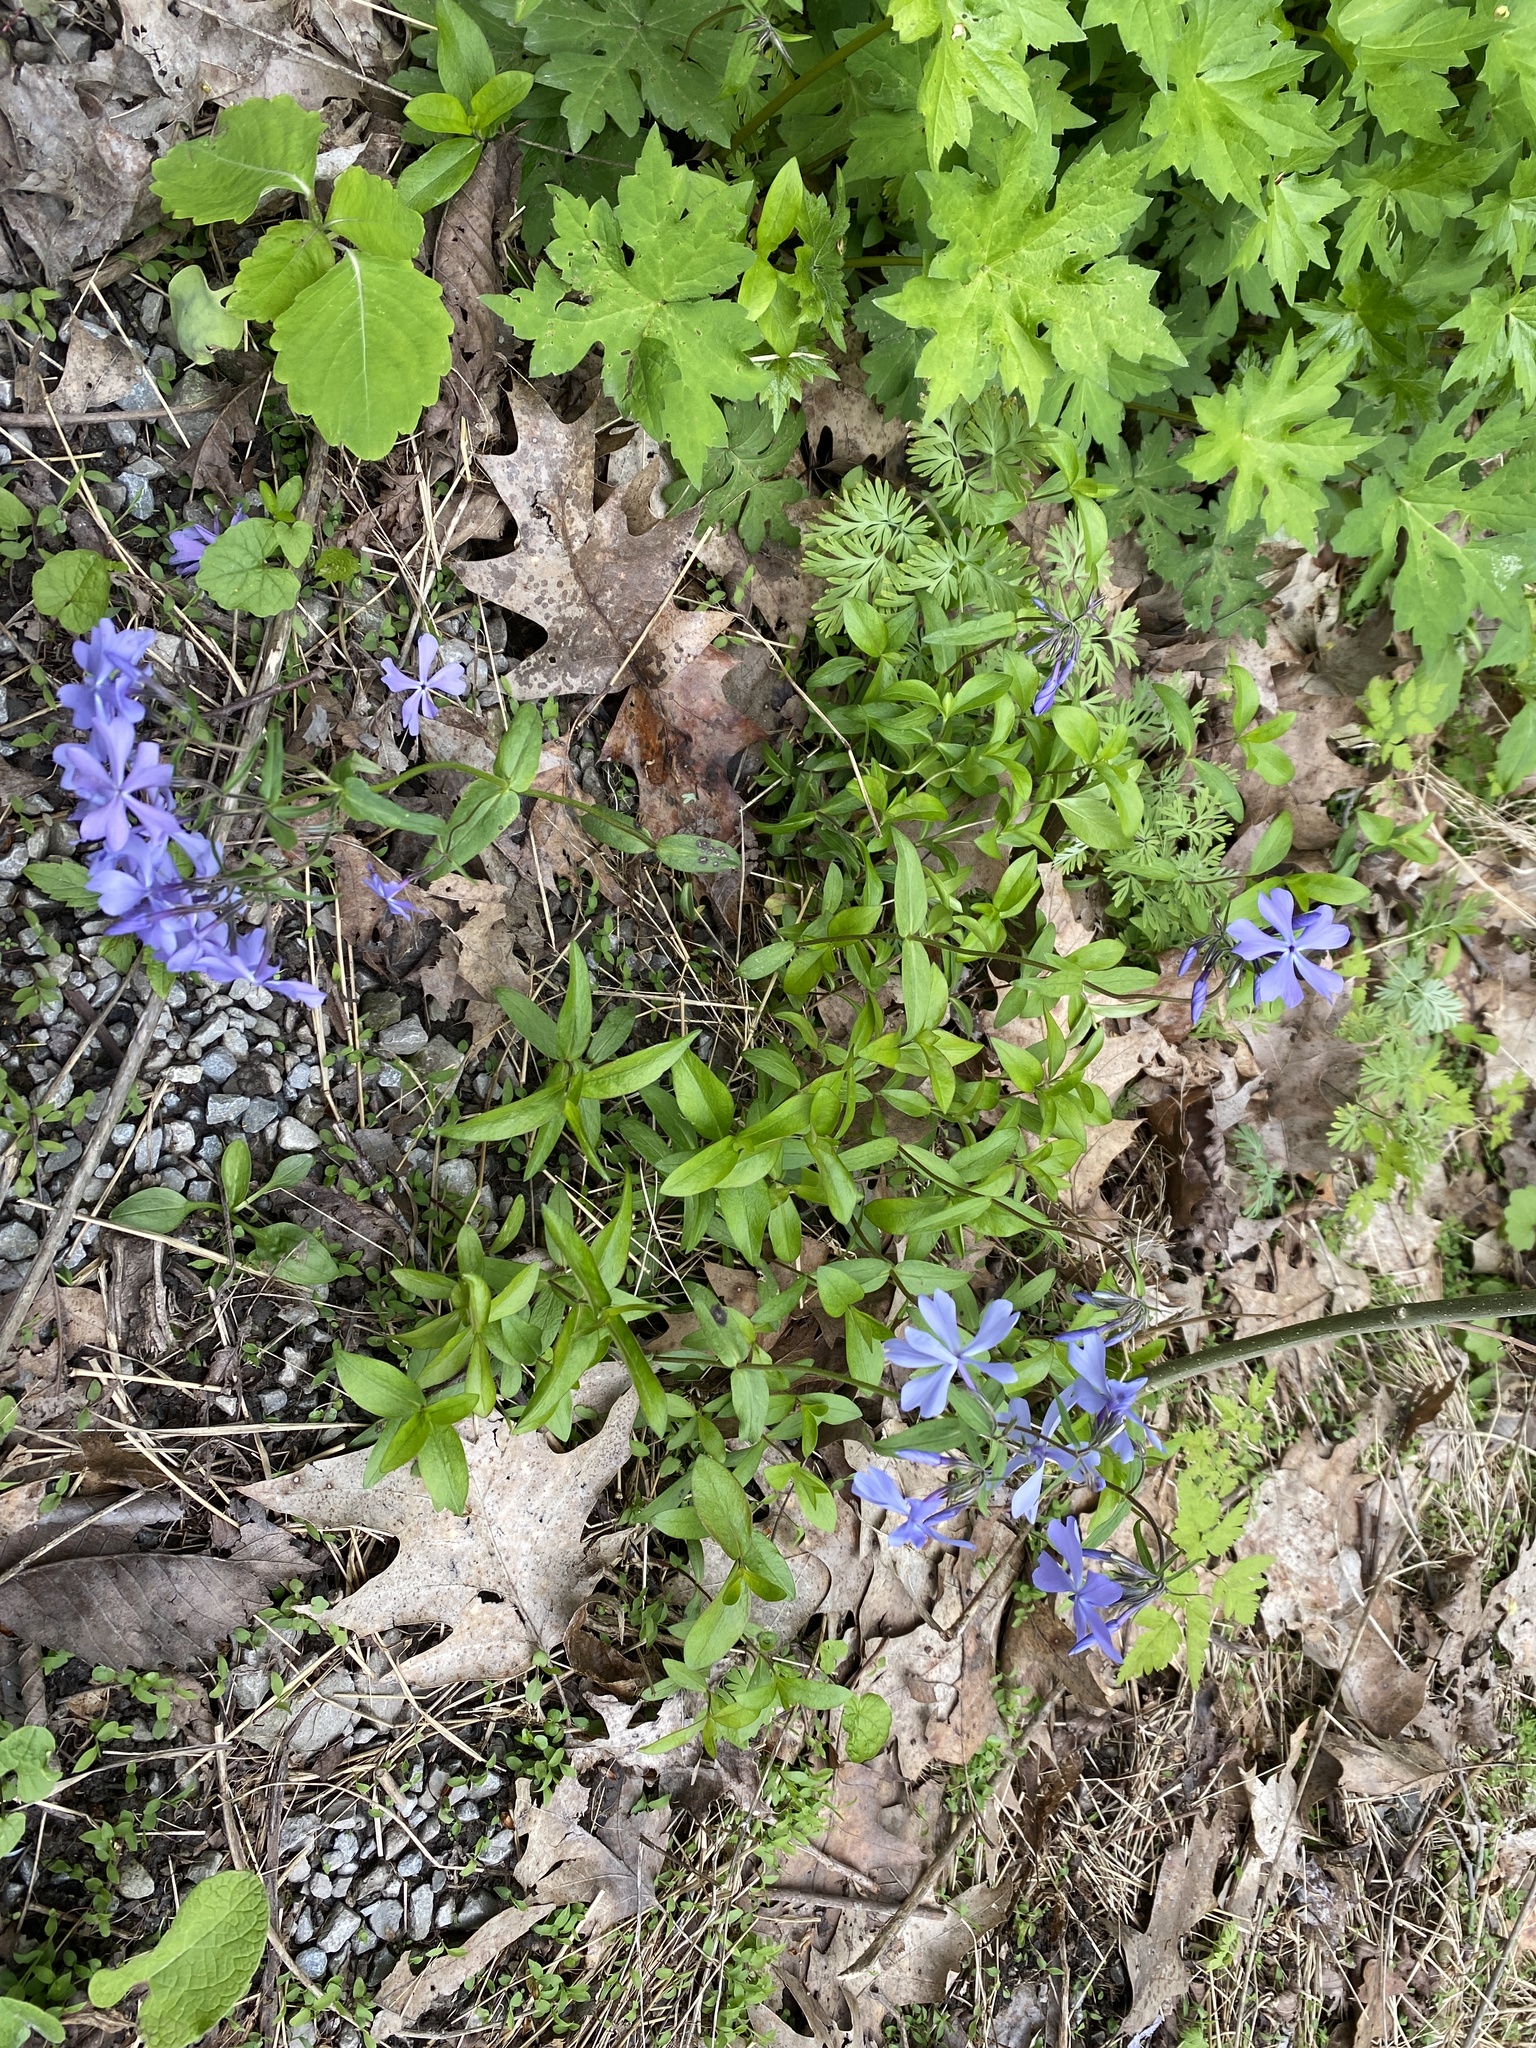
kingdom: Plantae
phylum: Tracheophyta
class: Magnoliopsida
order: Ericales
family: Polemoniaceae
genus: Phlox
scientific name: Phlox divaricata
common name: Blue phlox
